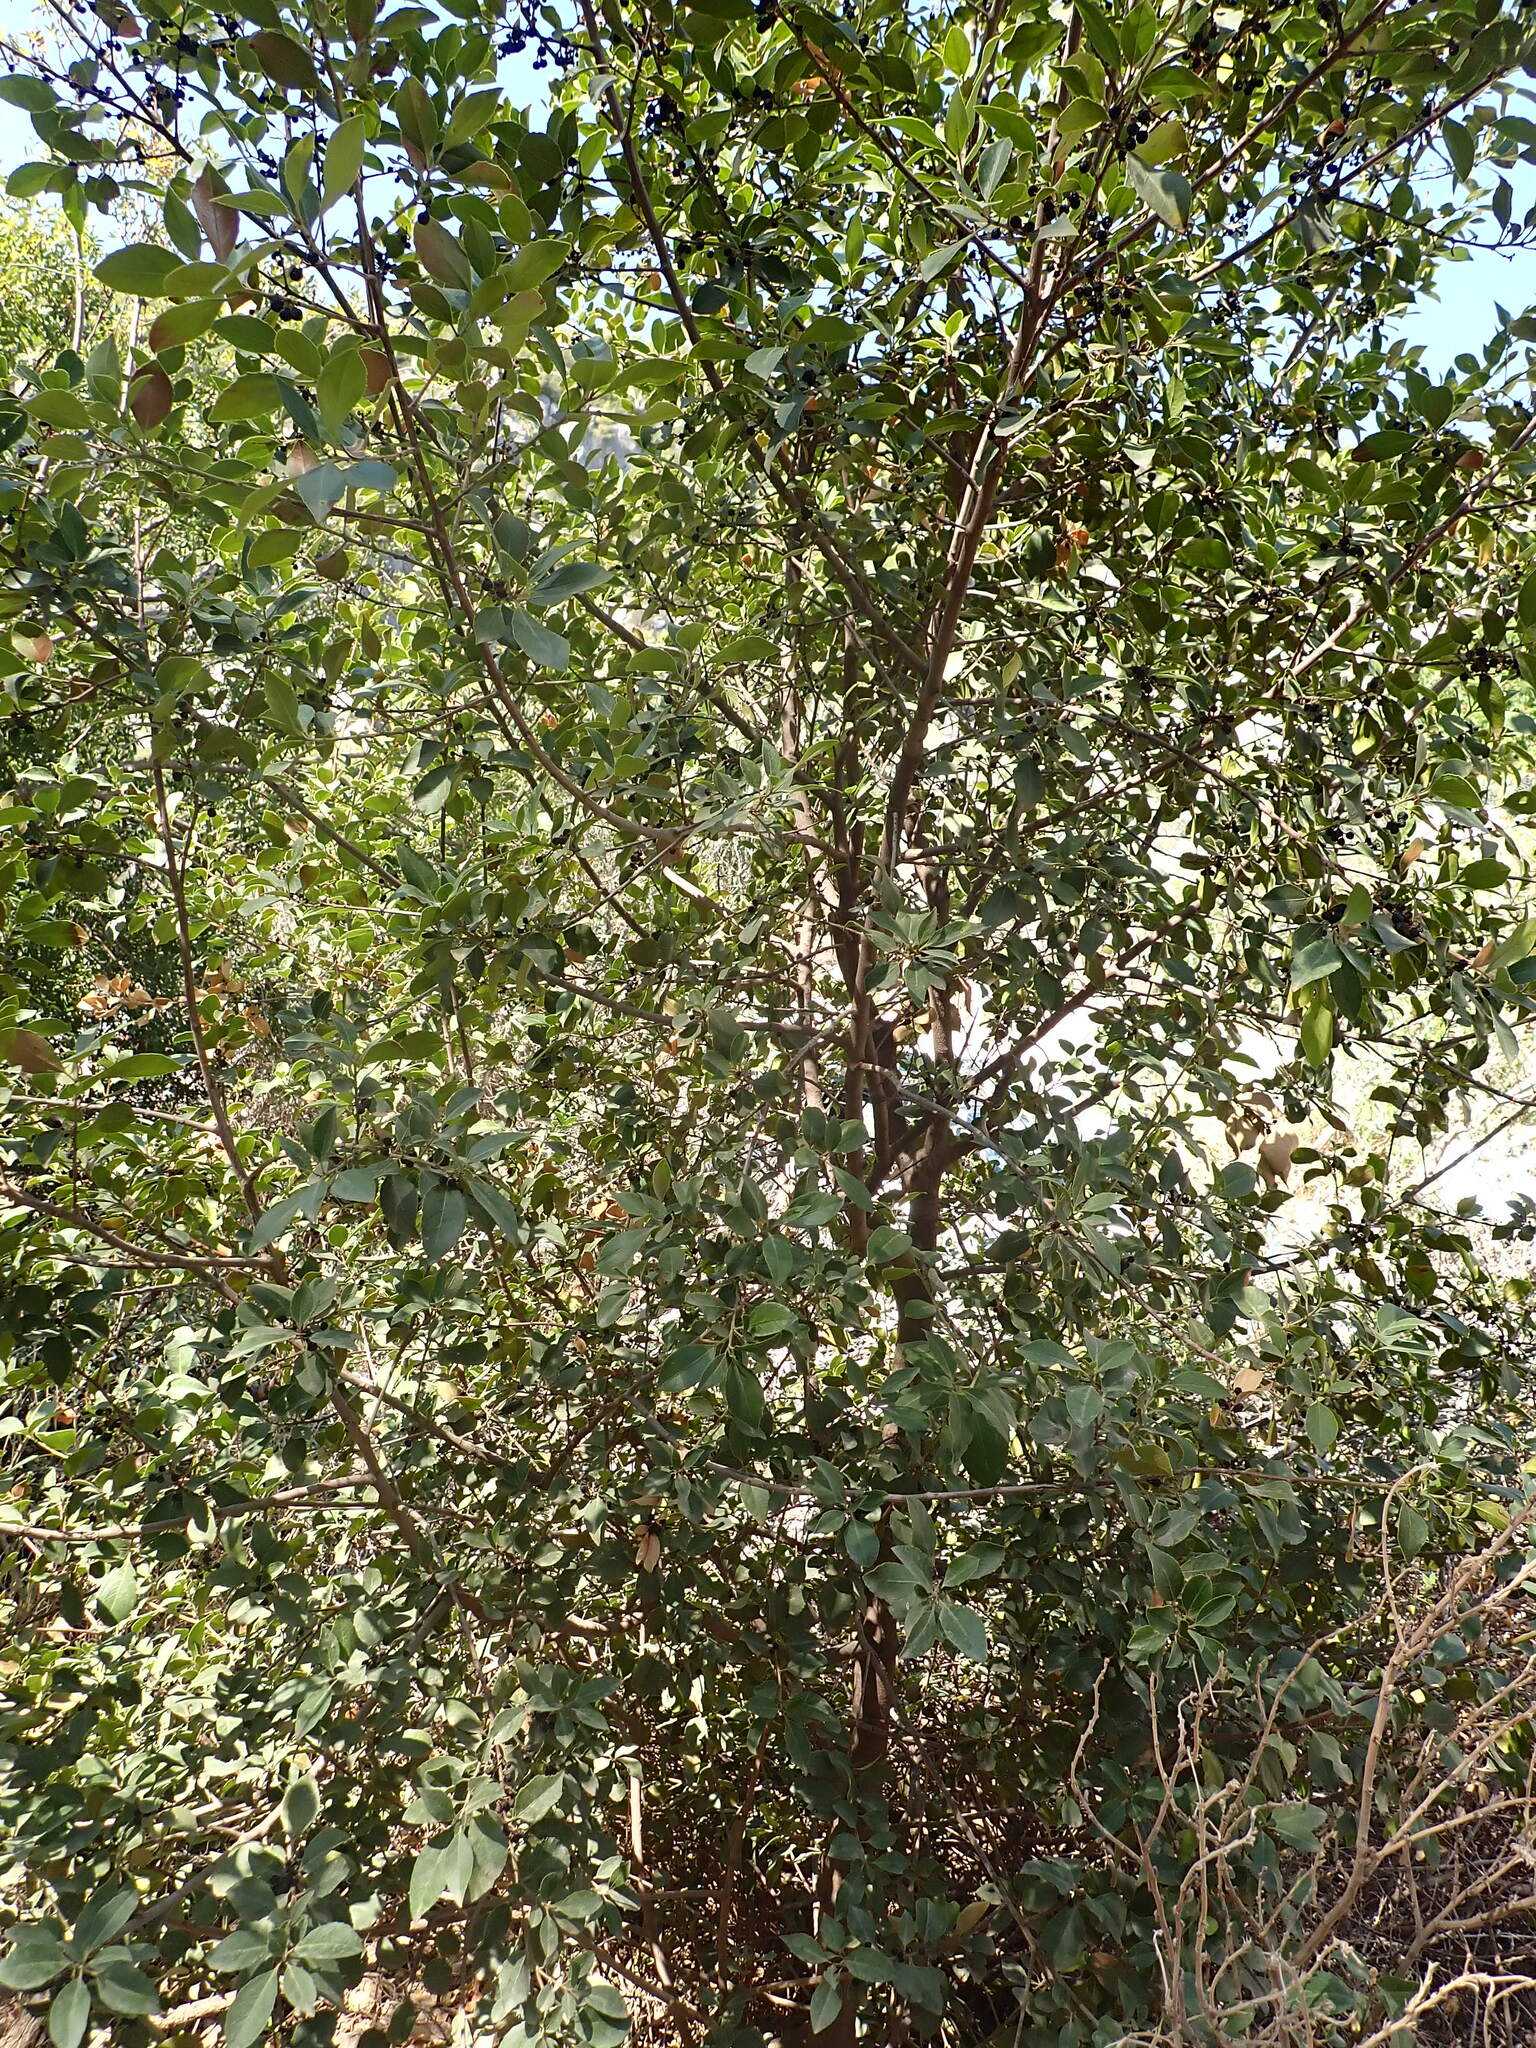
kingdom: Plantae
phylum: Tracheophyta
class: Magnoliopsida
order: Rosales
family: Rhamnaceae
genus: Rhamnus
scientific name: Rhamnus alaternus
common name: Mediterranean buckthorn
